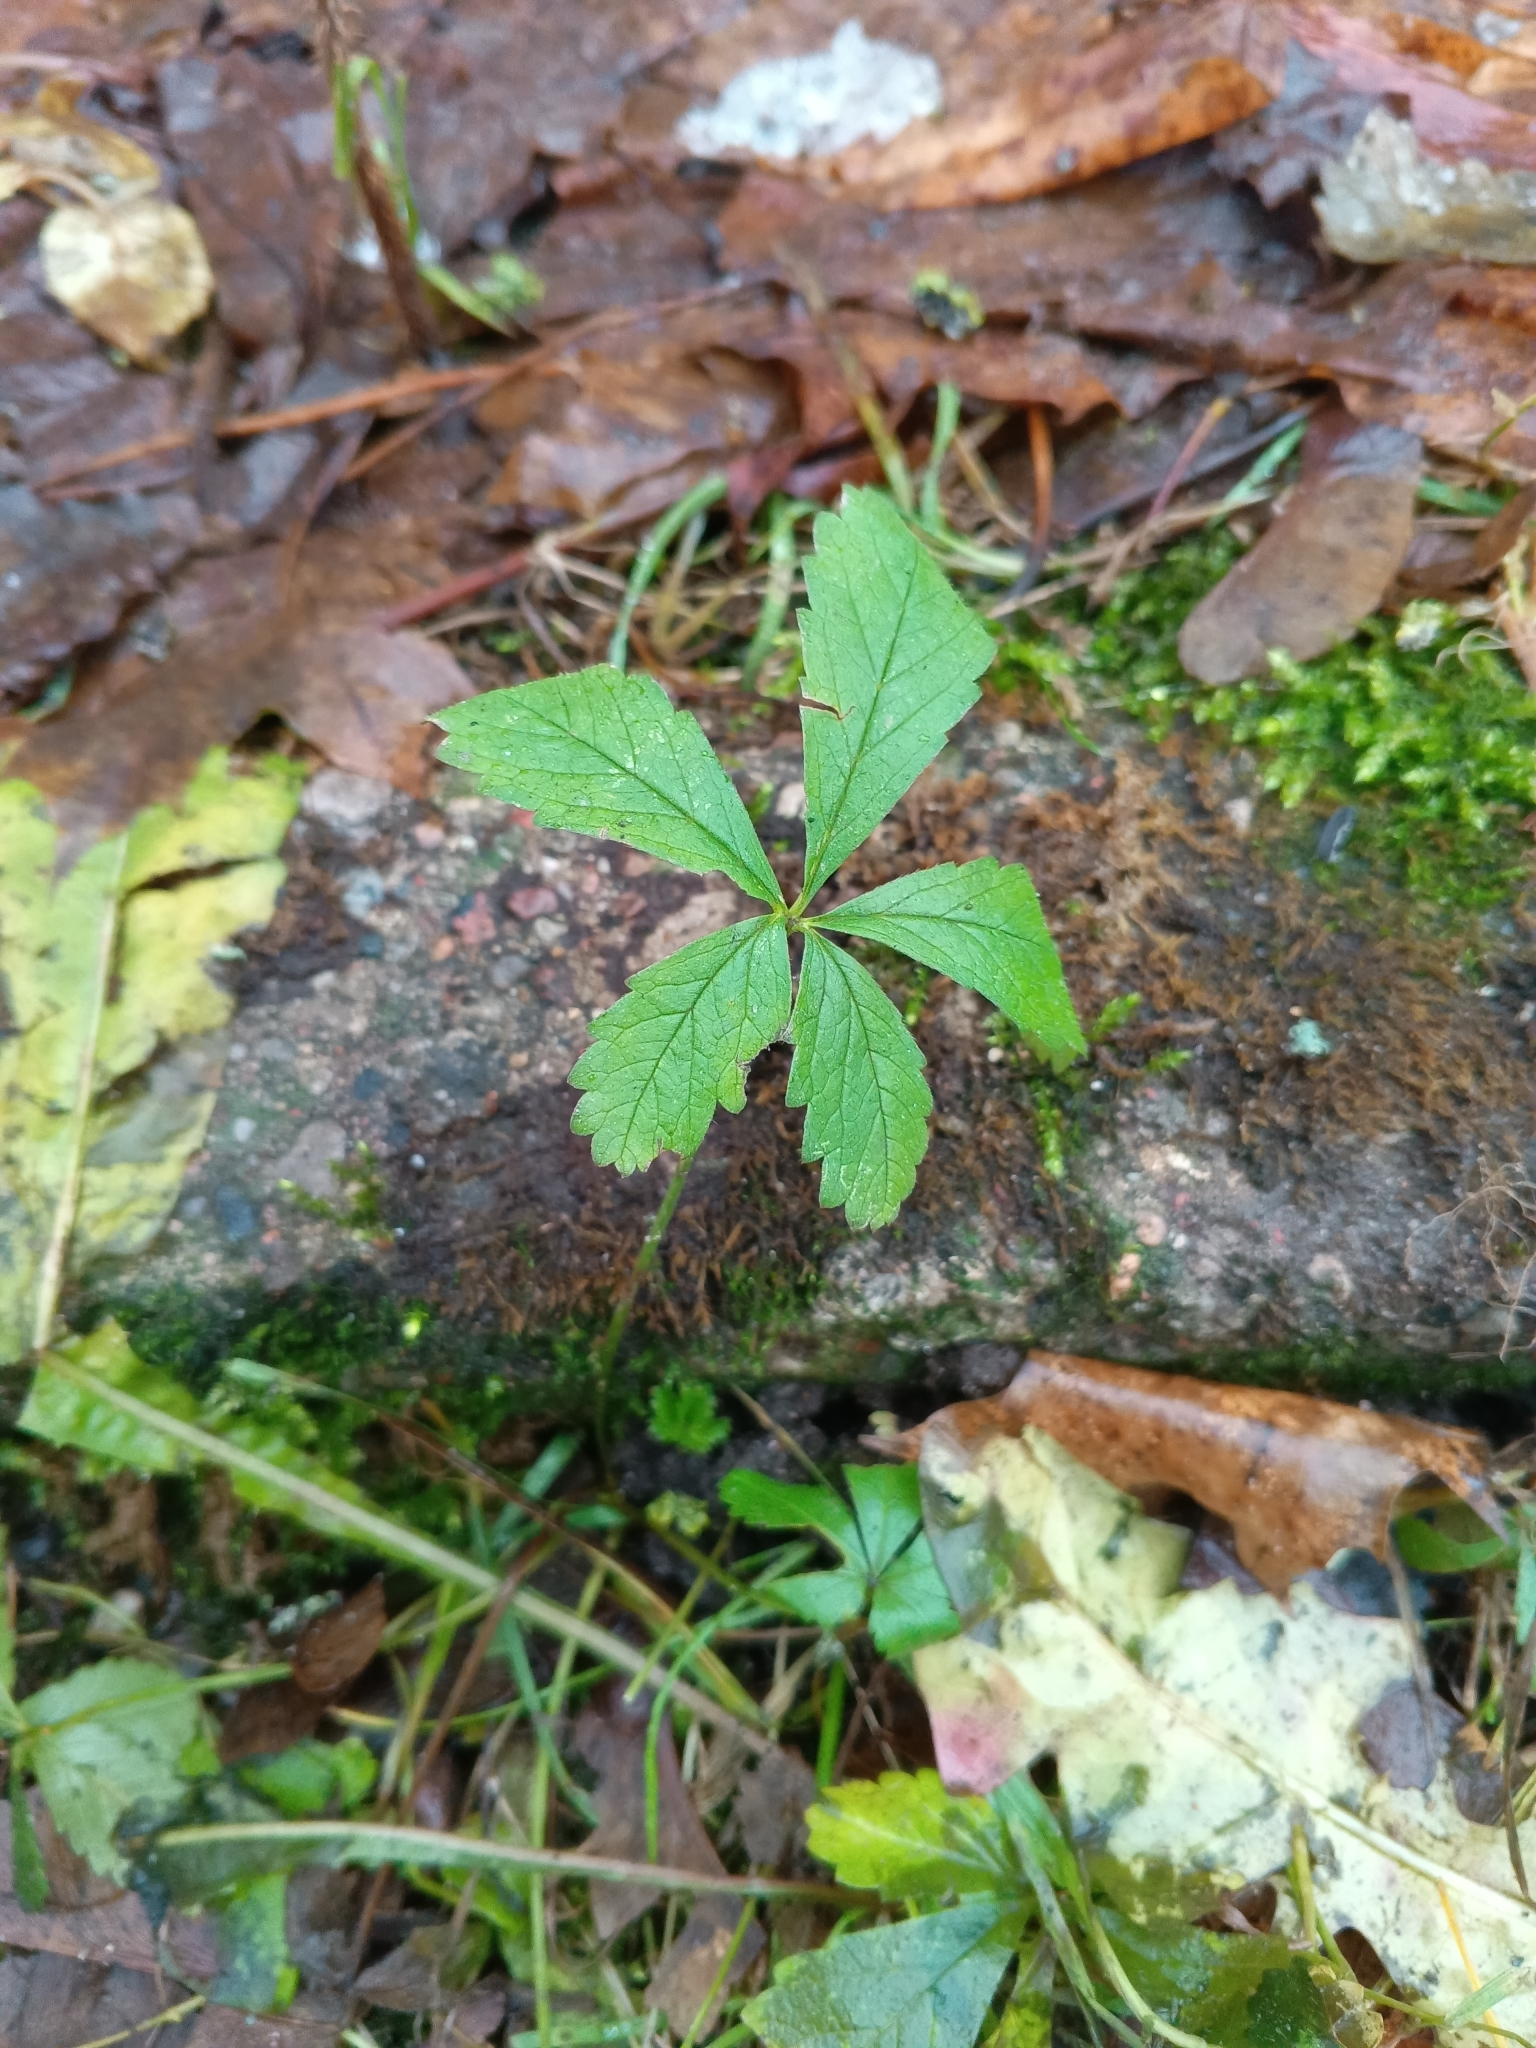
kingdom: Plantae
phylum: Tracheophyta
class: Magnoliopsida
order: Rosales
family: Rosaceae
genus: Potentilla
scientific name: Potentilla reptans
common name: Creeping cinquefoil
